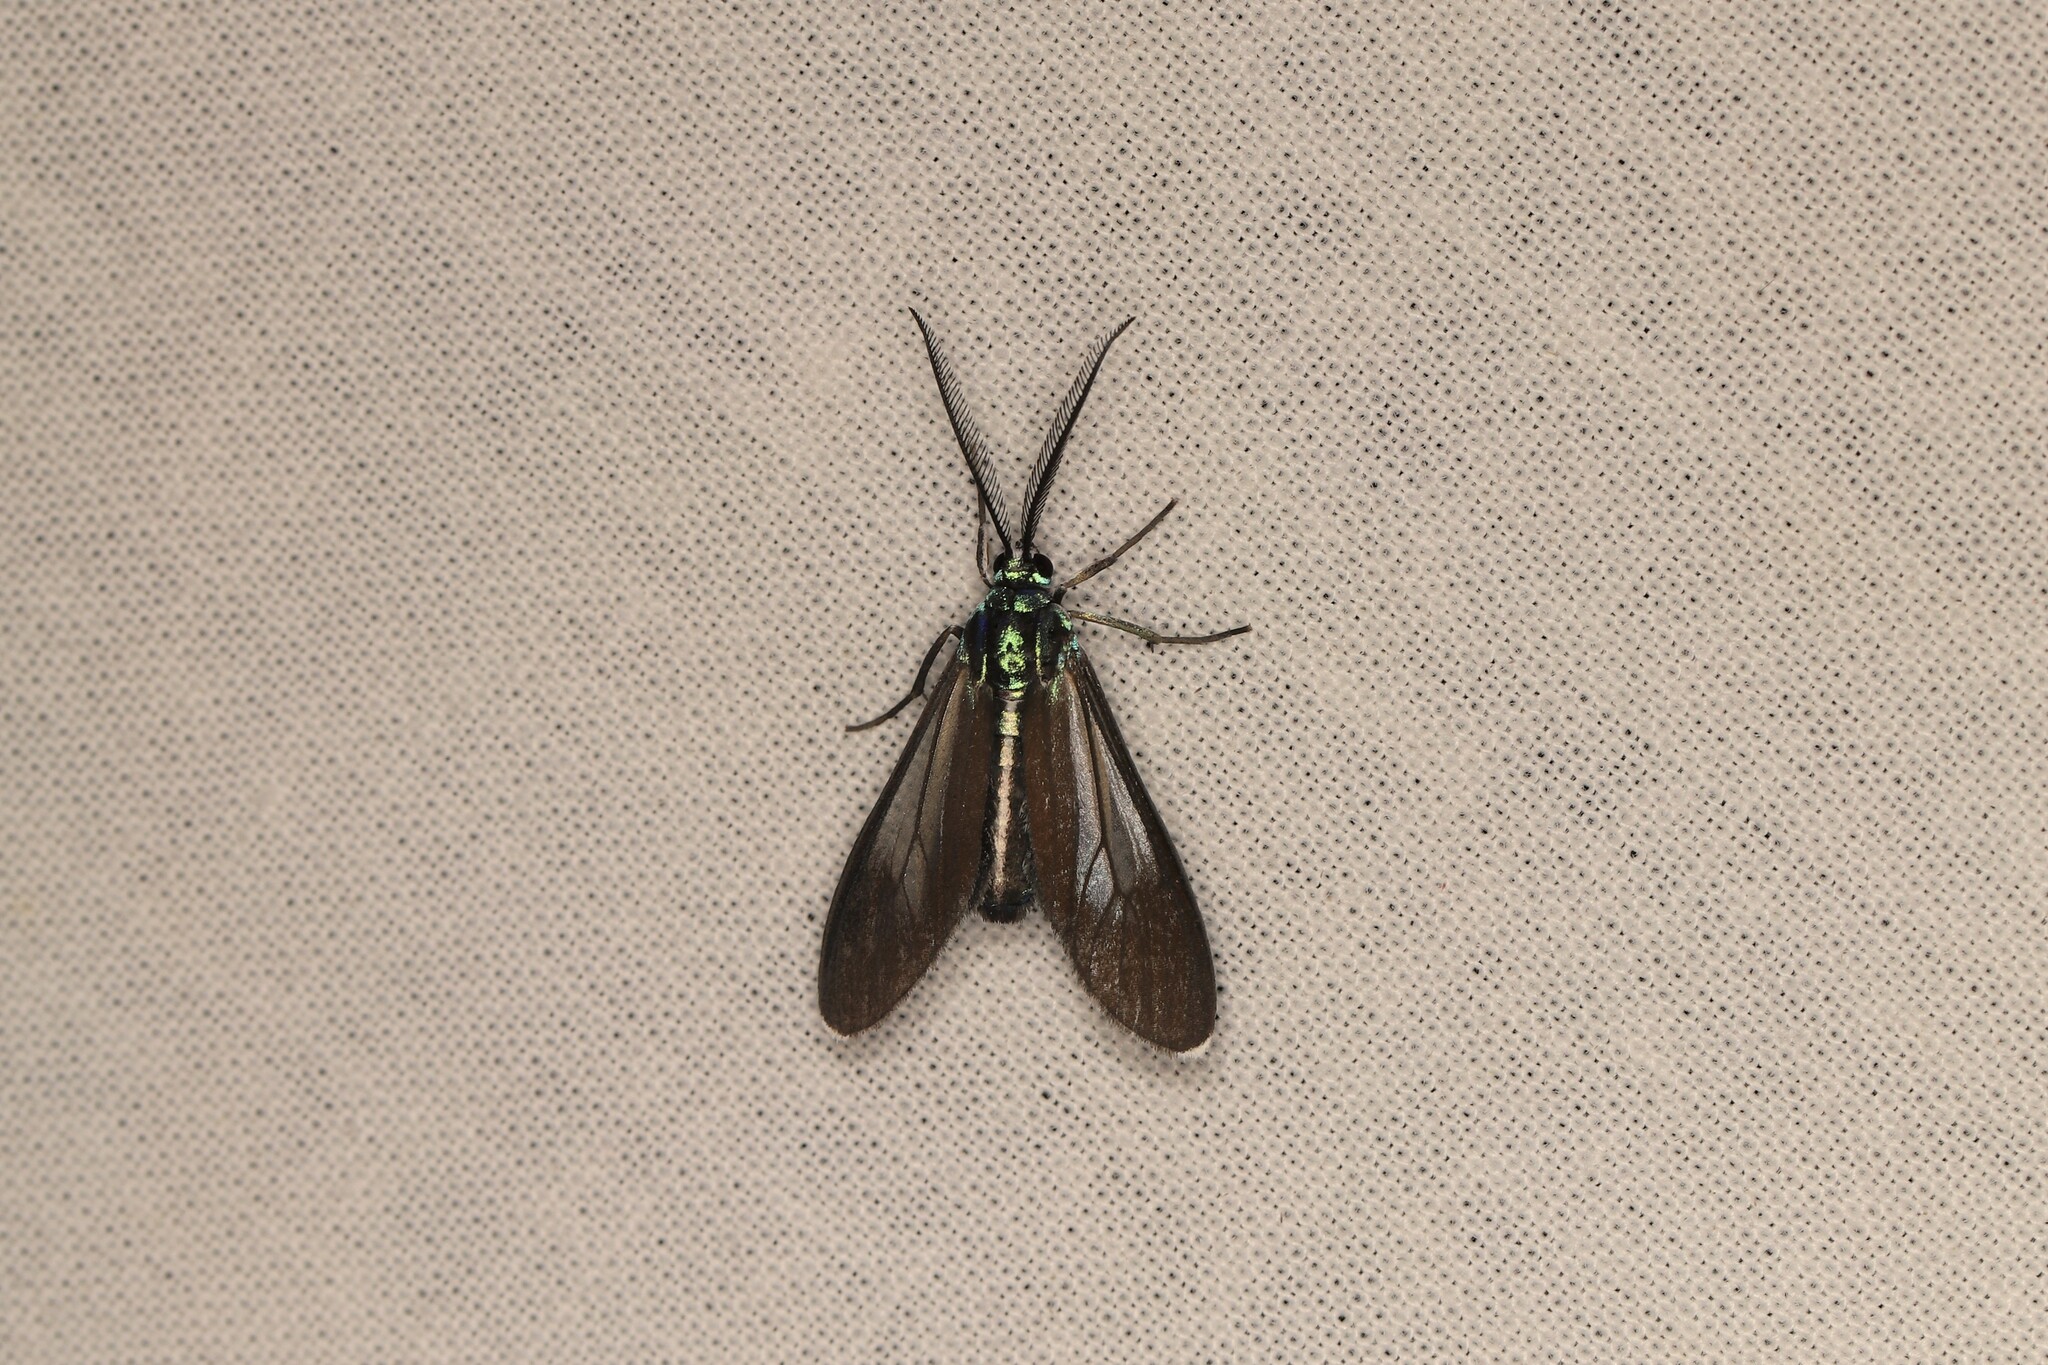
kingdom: Animalia
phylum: Arthropoda
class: Insecta
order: Lepidoptera
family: Erebidae
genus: Uranophora
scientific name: Uranophora leucotela
